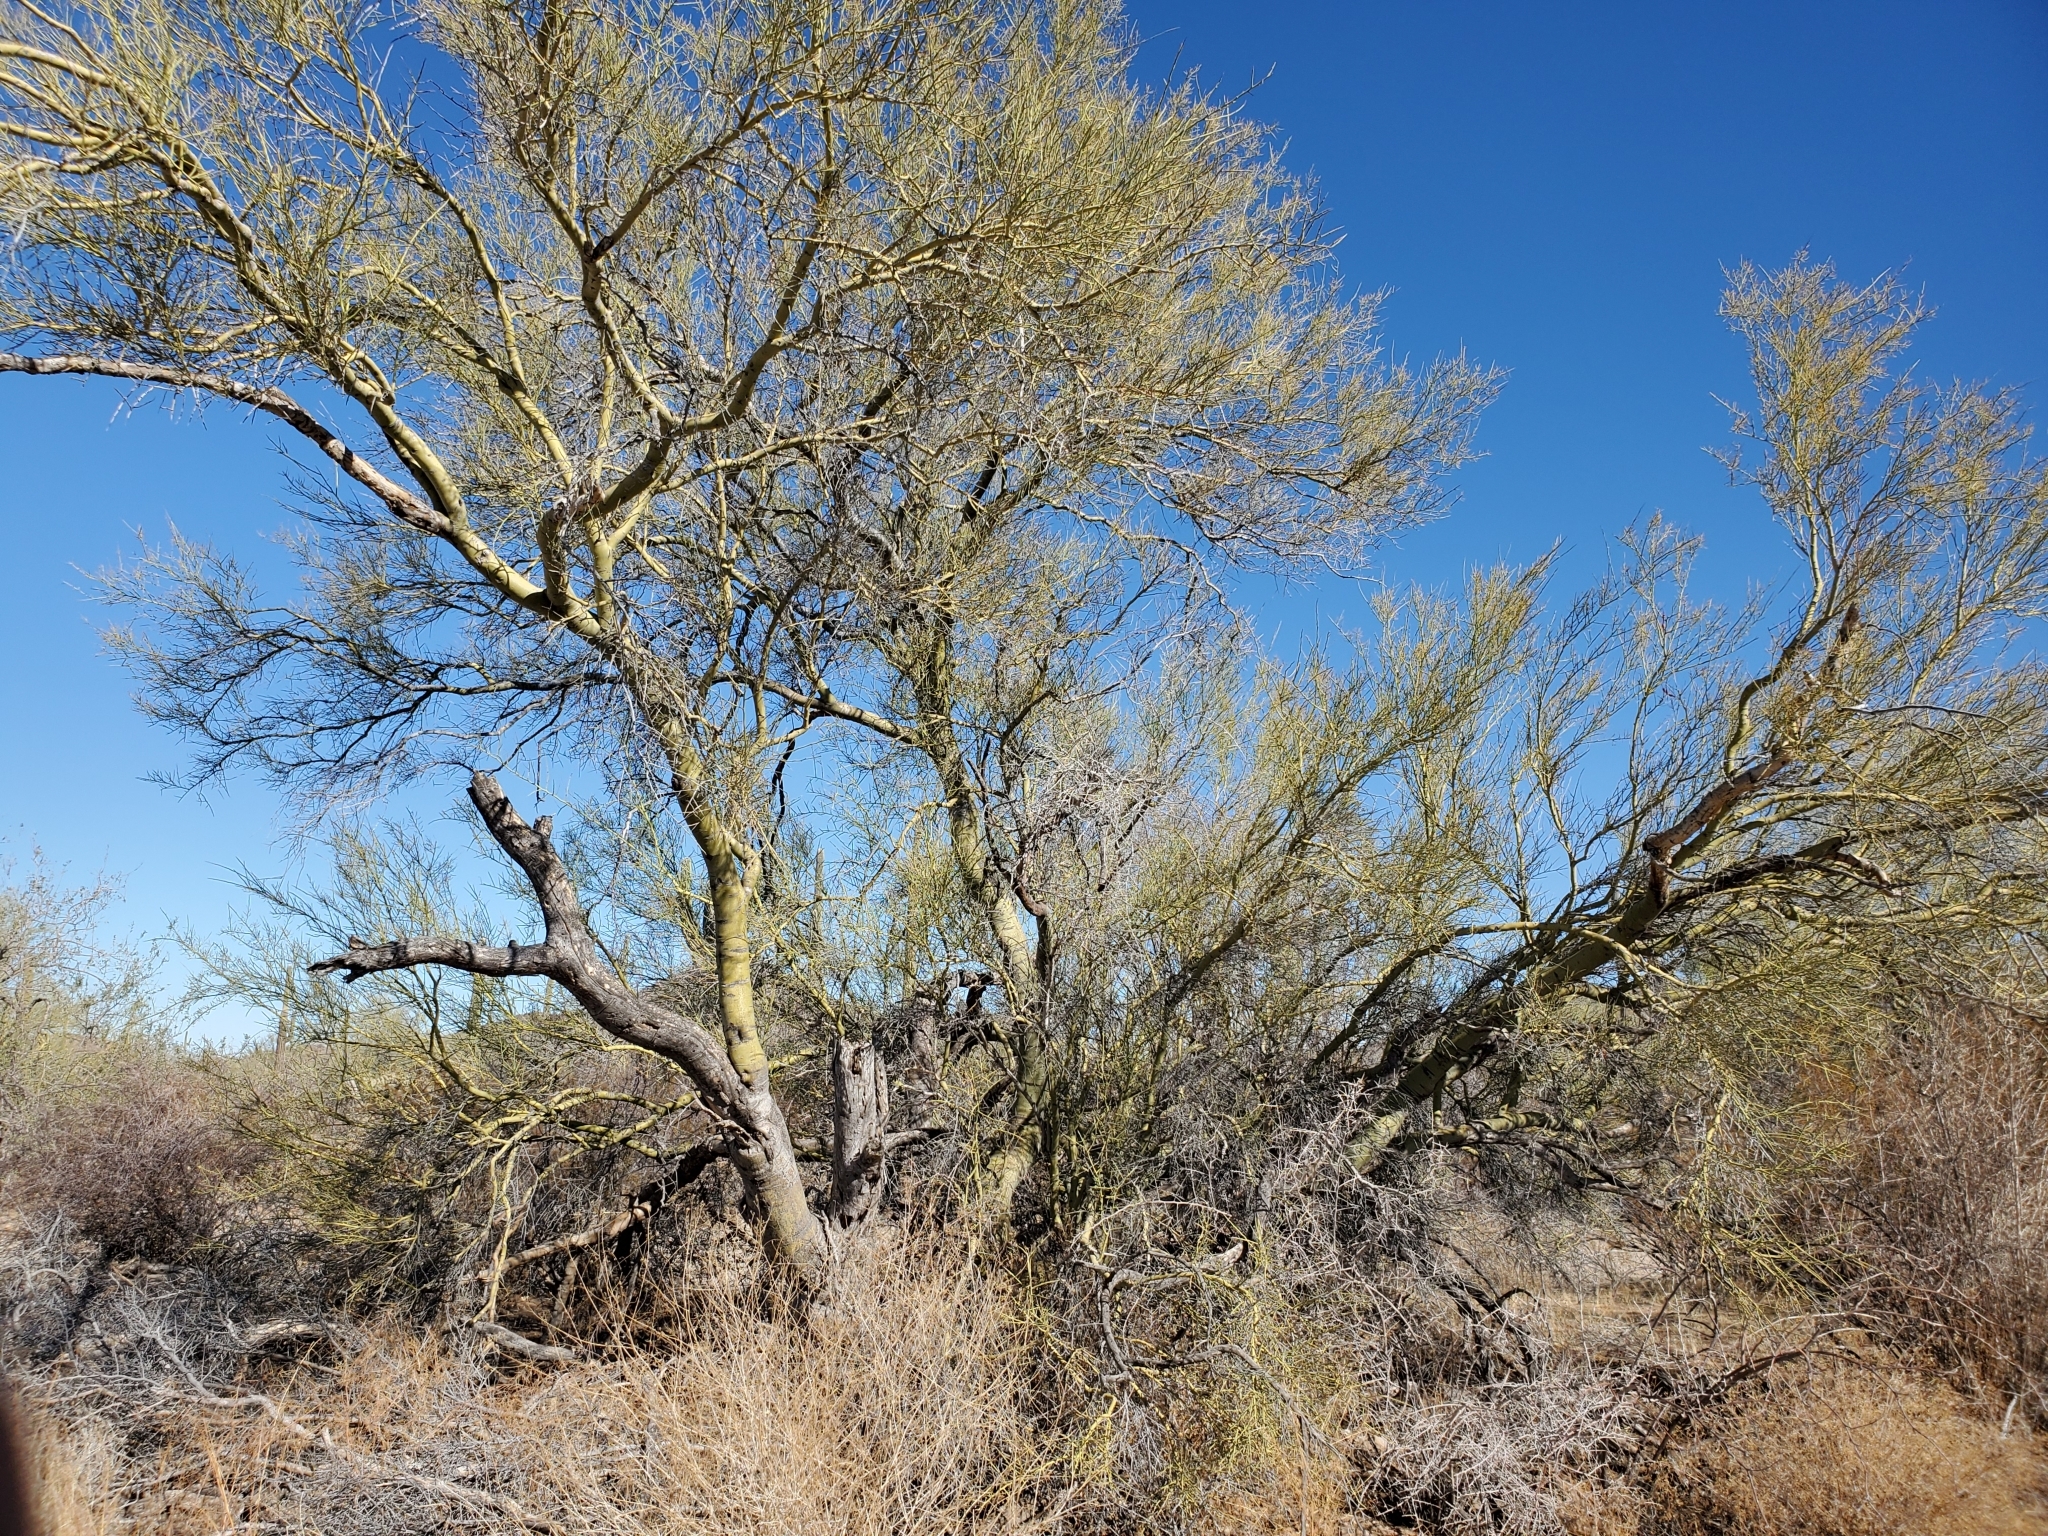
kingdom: Plantae
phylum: Tracheophyta
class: Magnoliopsida
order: Fabales
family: Fabaceae
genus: Parkinsonia
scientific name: Parkinsonia microphylla
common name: Yellow paloverde
